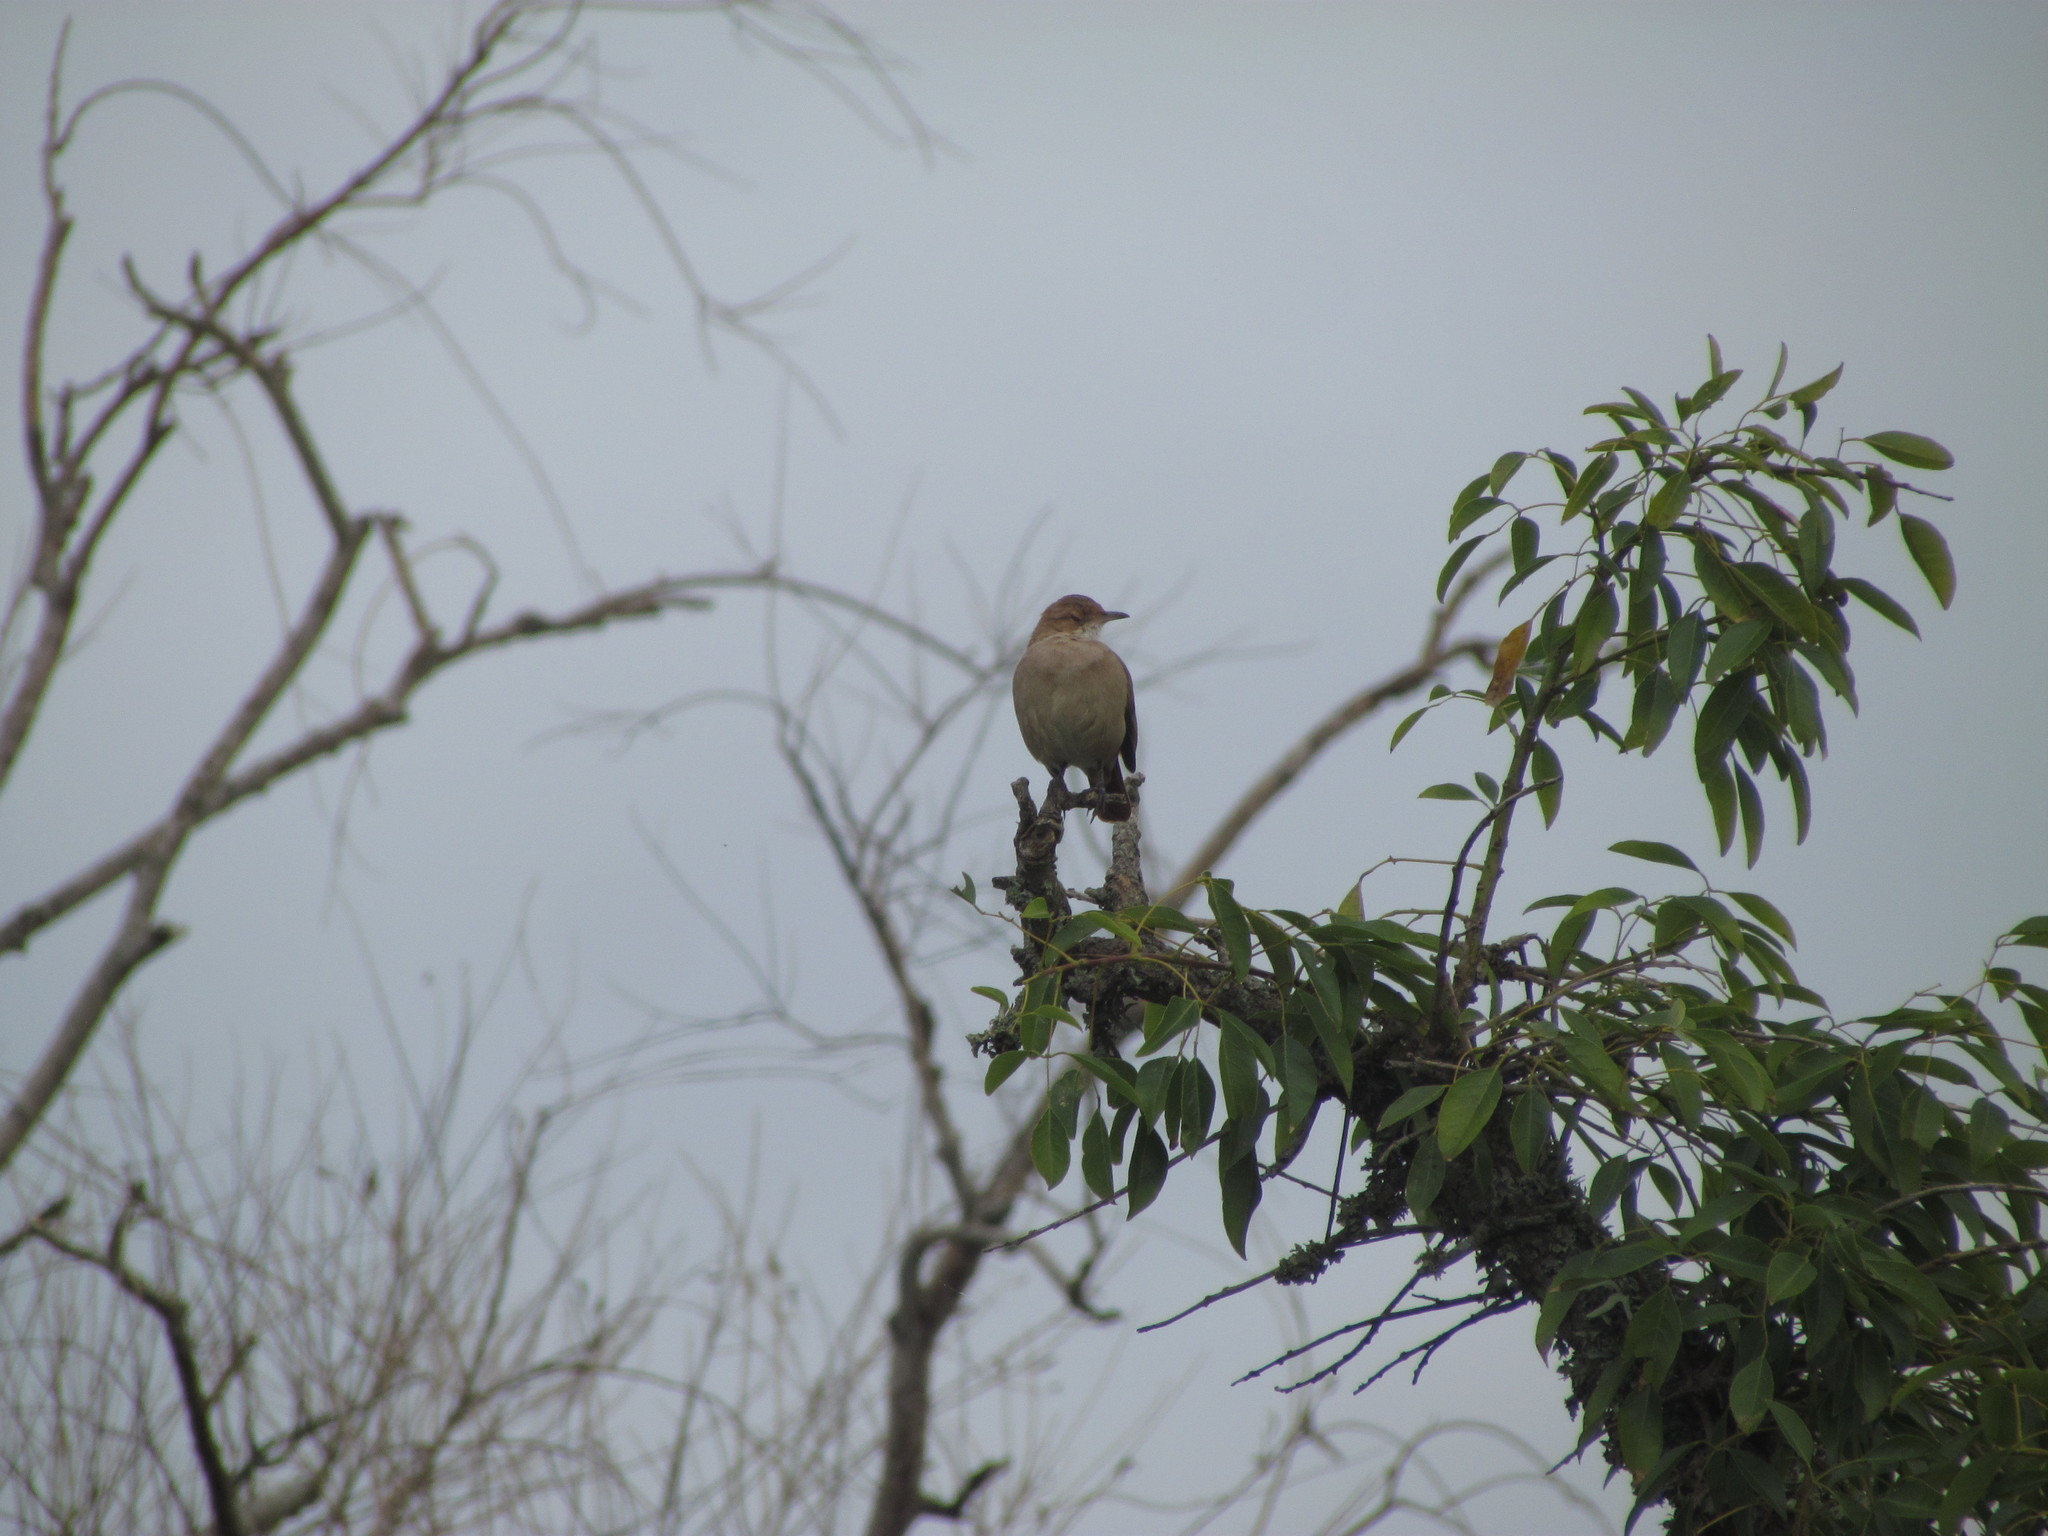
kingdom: Animalia
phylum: Chordata
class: Aves
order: Passeriformes
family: Furnariidae
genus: Furnarius
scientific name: Furnarius rufus
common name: Rufous hornero
